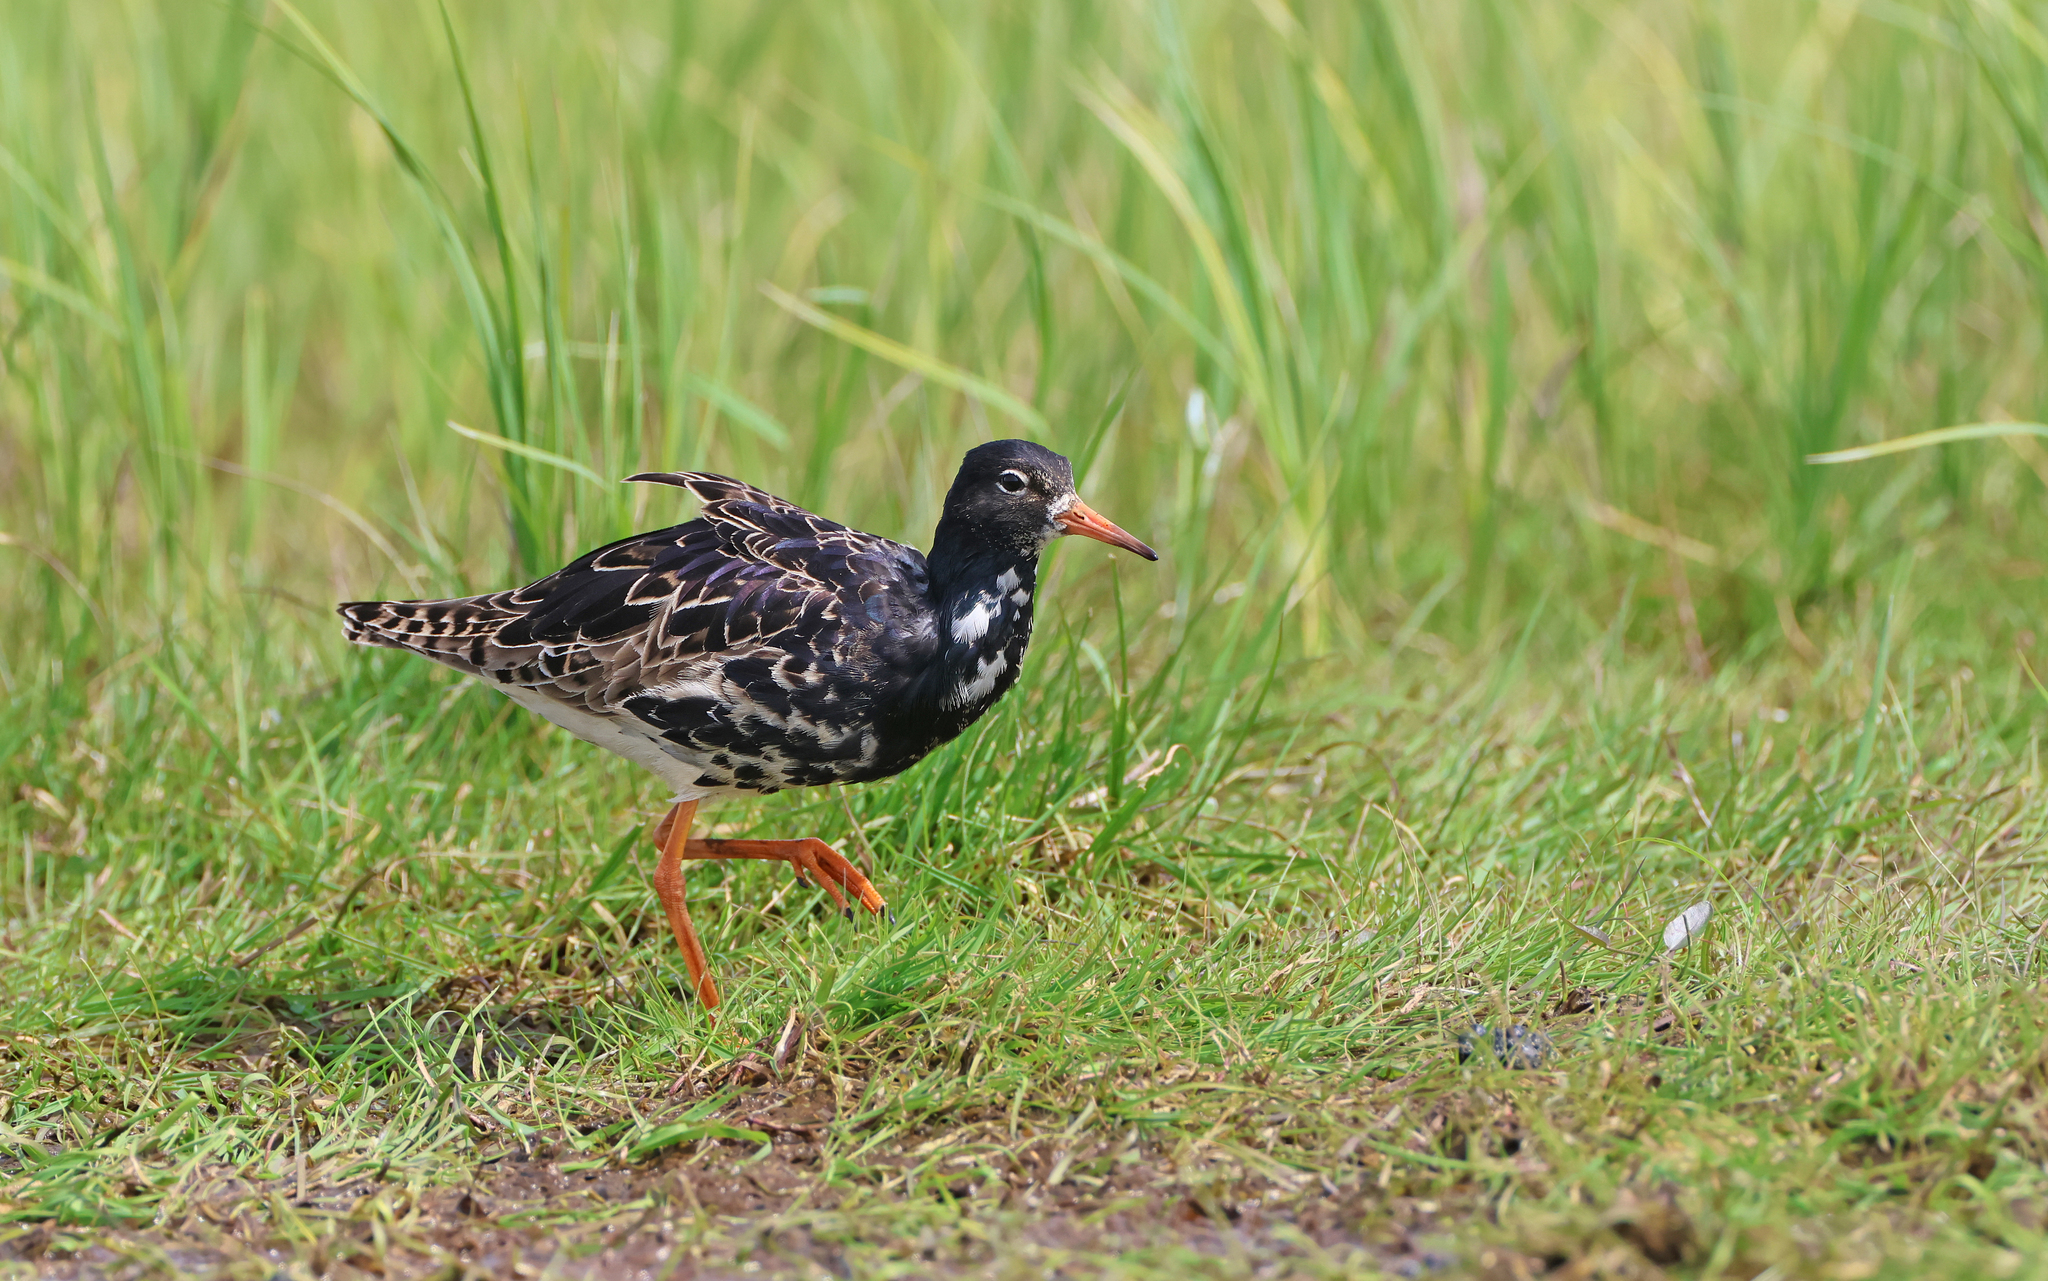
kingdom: Animalia
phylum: Chordata
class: Aves
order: Charadriiformes
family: Scolopacidae
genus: Calidris
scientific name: Calidris pugnax
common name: Ruff
